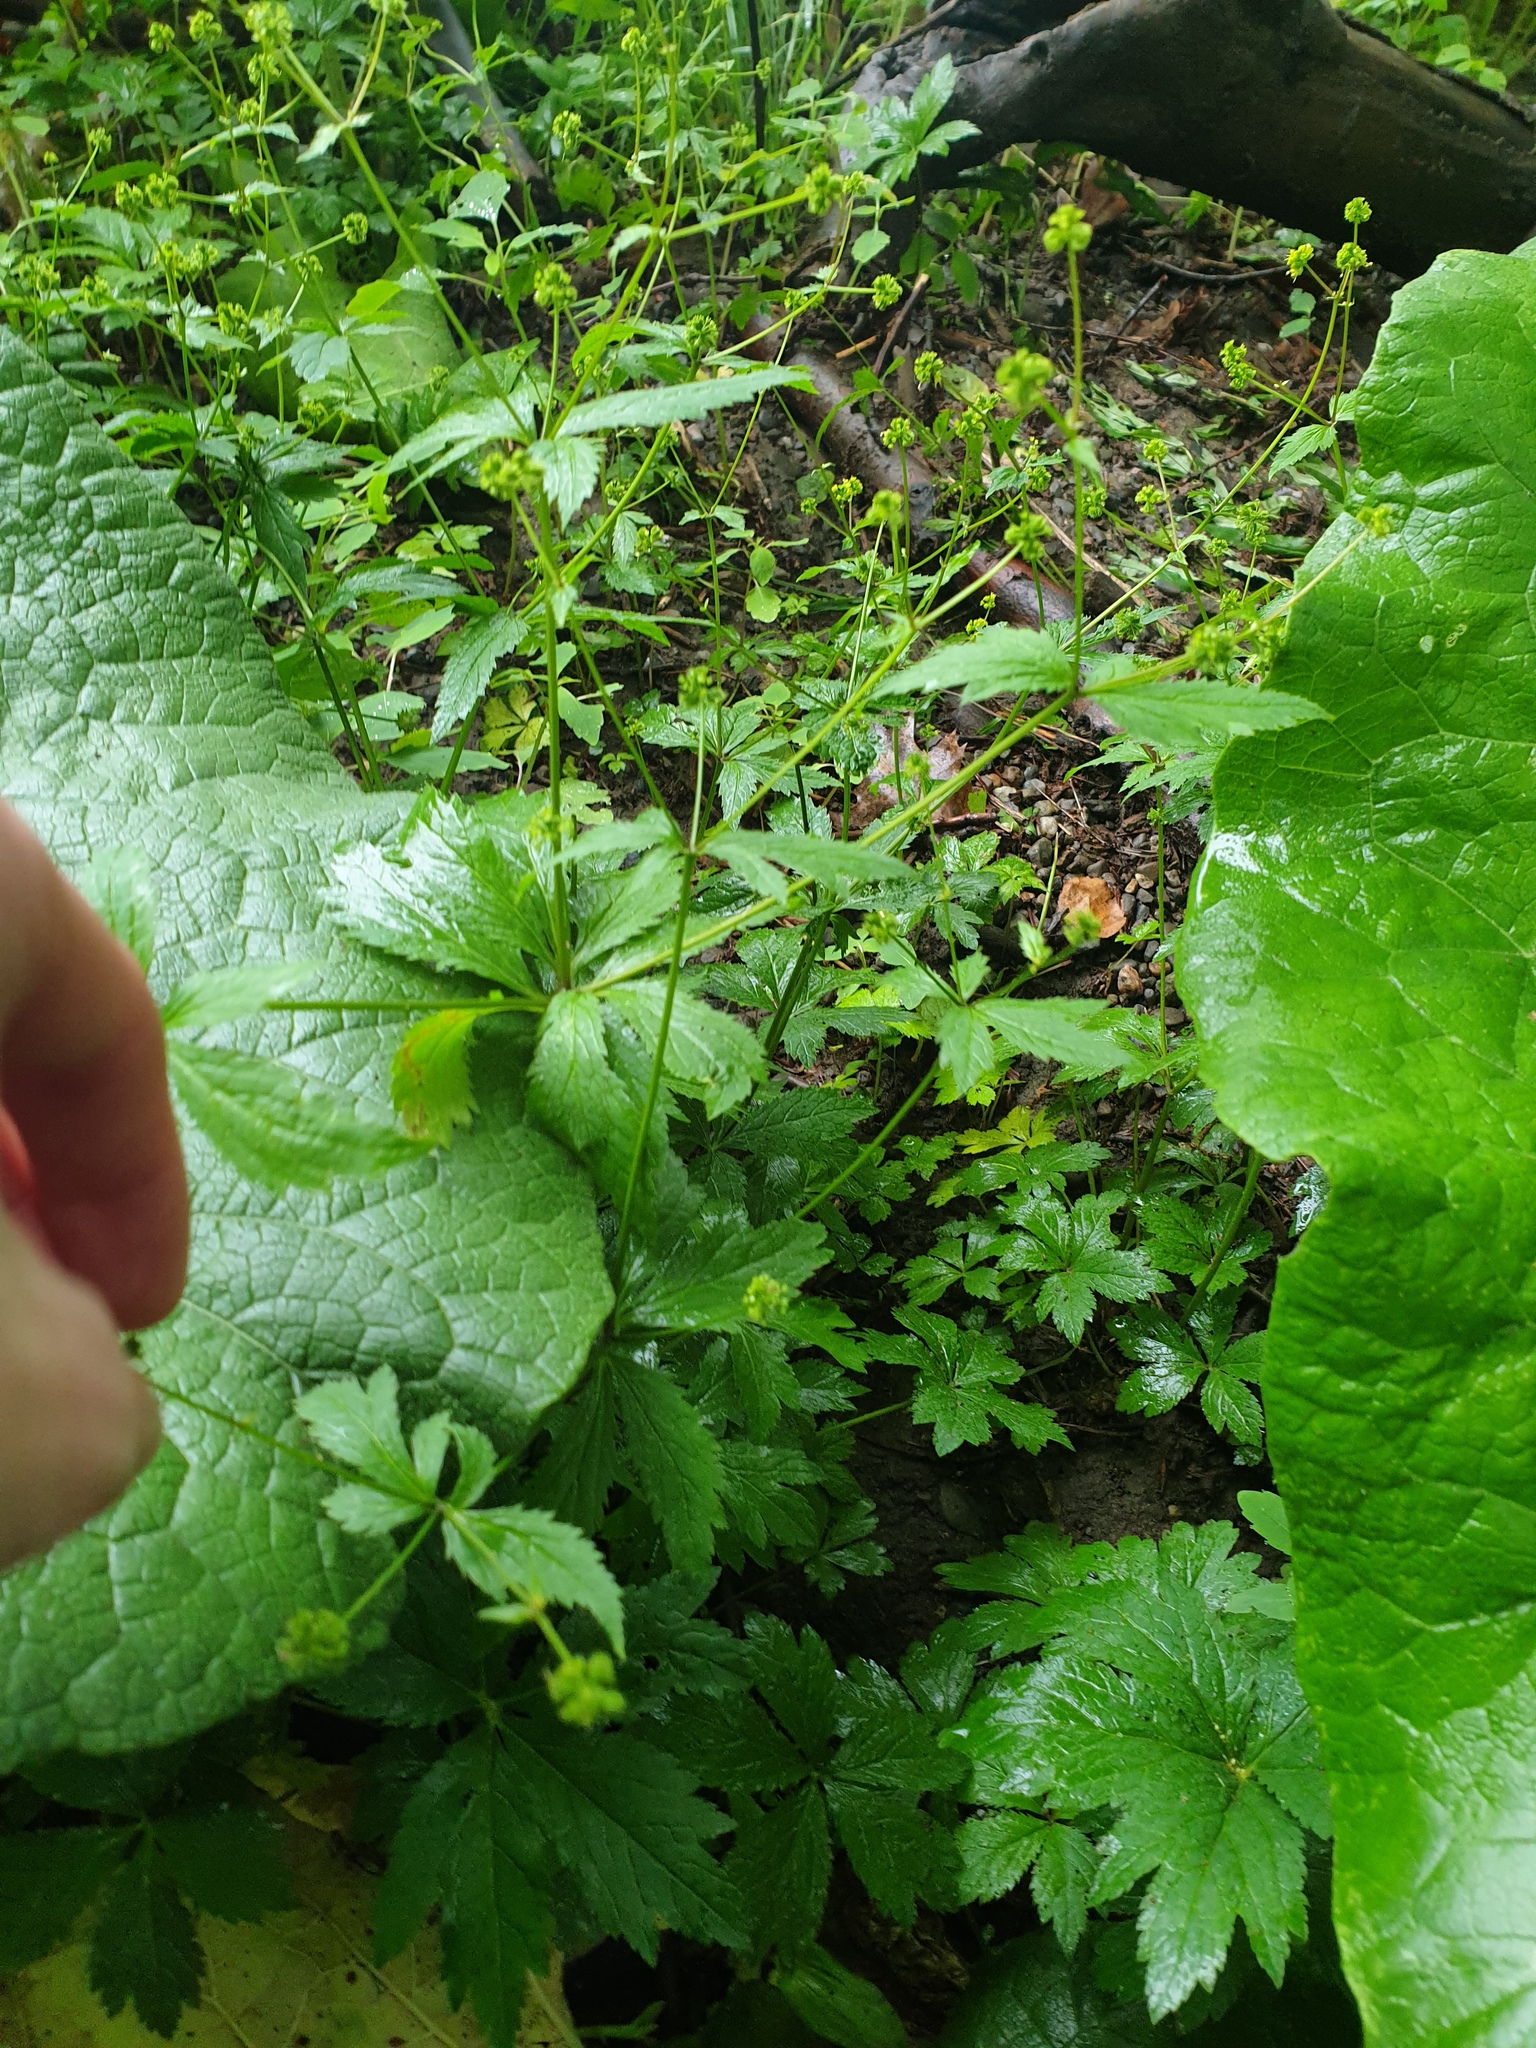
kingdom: Plantae
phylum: Tracheophyta
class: Magnoliopsida
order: Apiales
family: Apiaceae
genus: Sanicula
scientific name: Sanicula odorata
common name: Cluster sanicle
